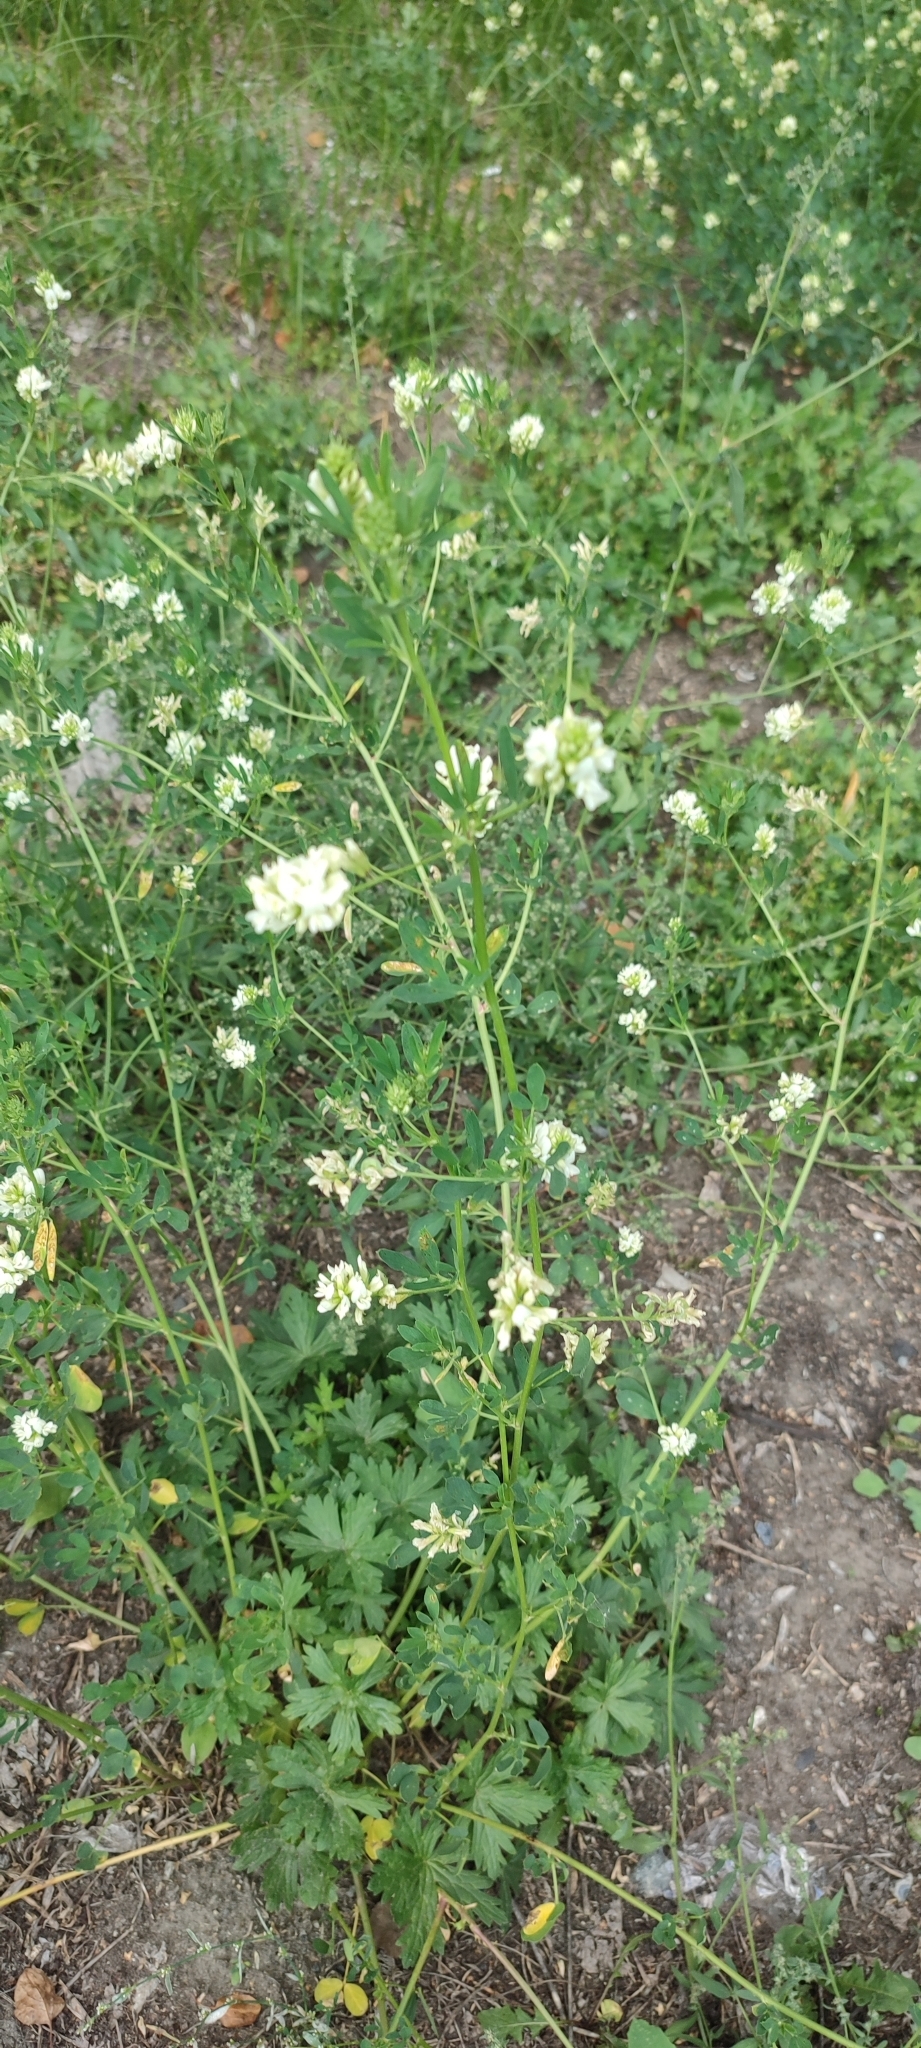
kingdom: Plantae
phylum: Tracheophyta
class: Magnoliopsida
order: Brassicales
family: Brassicaceae
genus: Berteroa
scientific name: Berteroa incana
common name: Hoary alison
